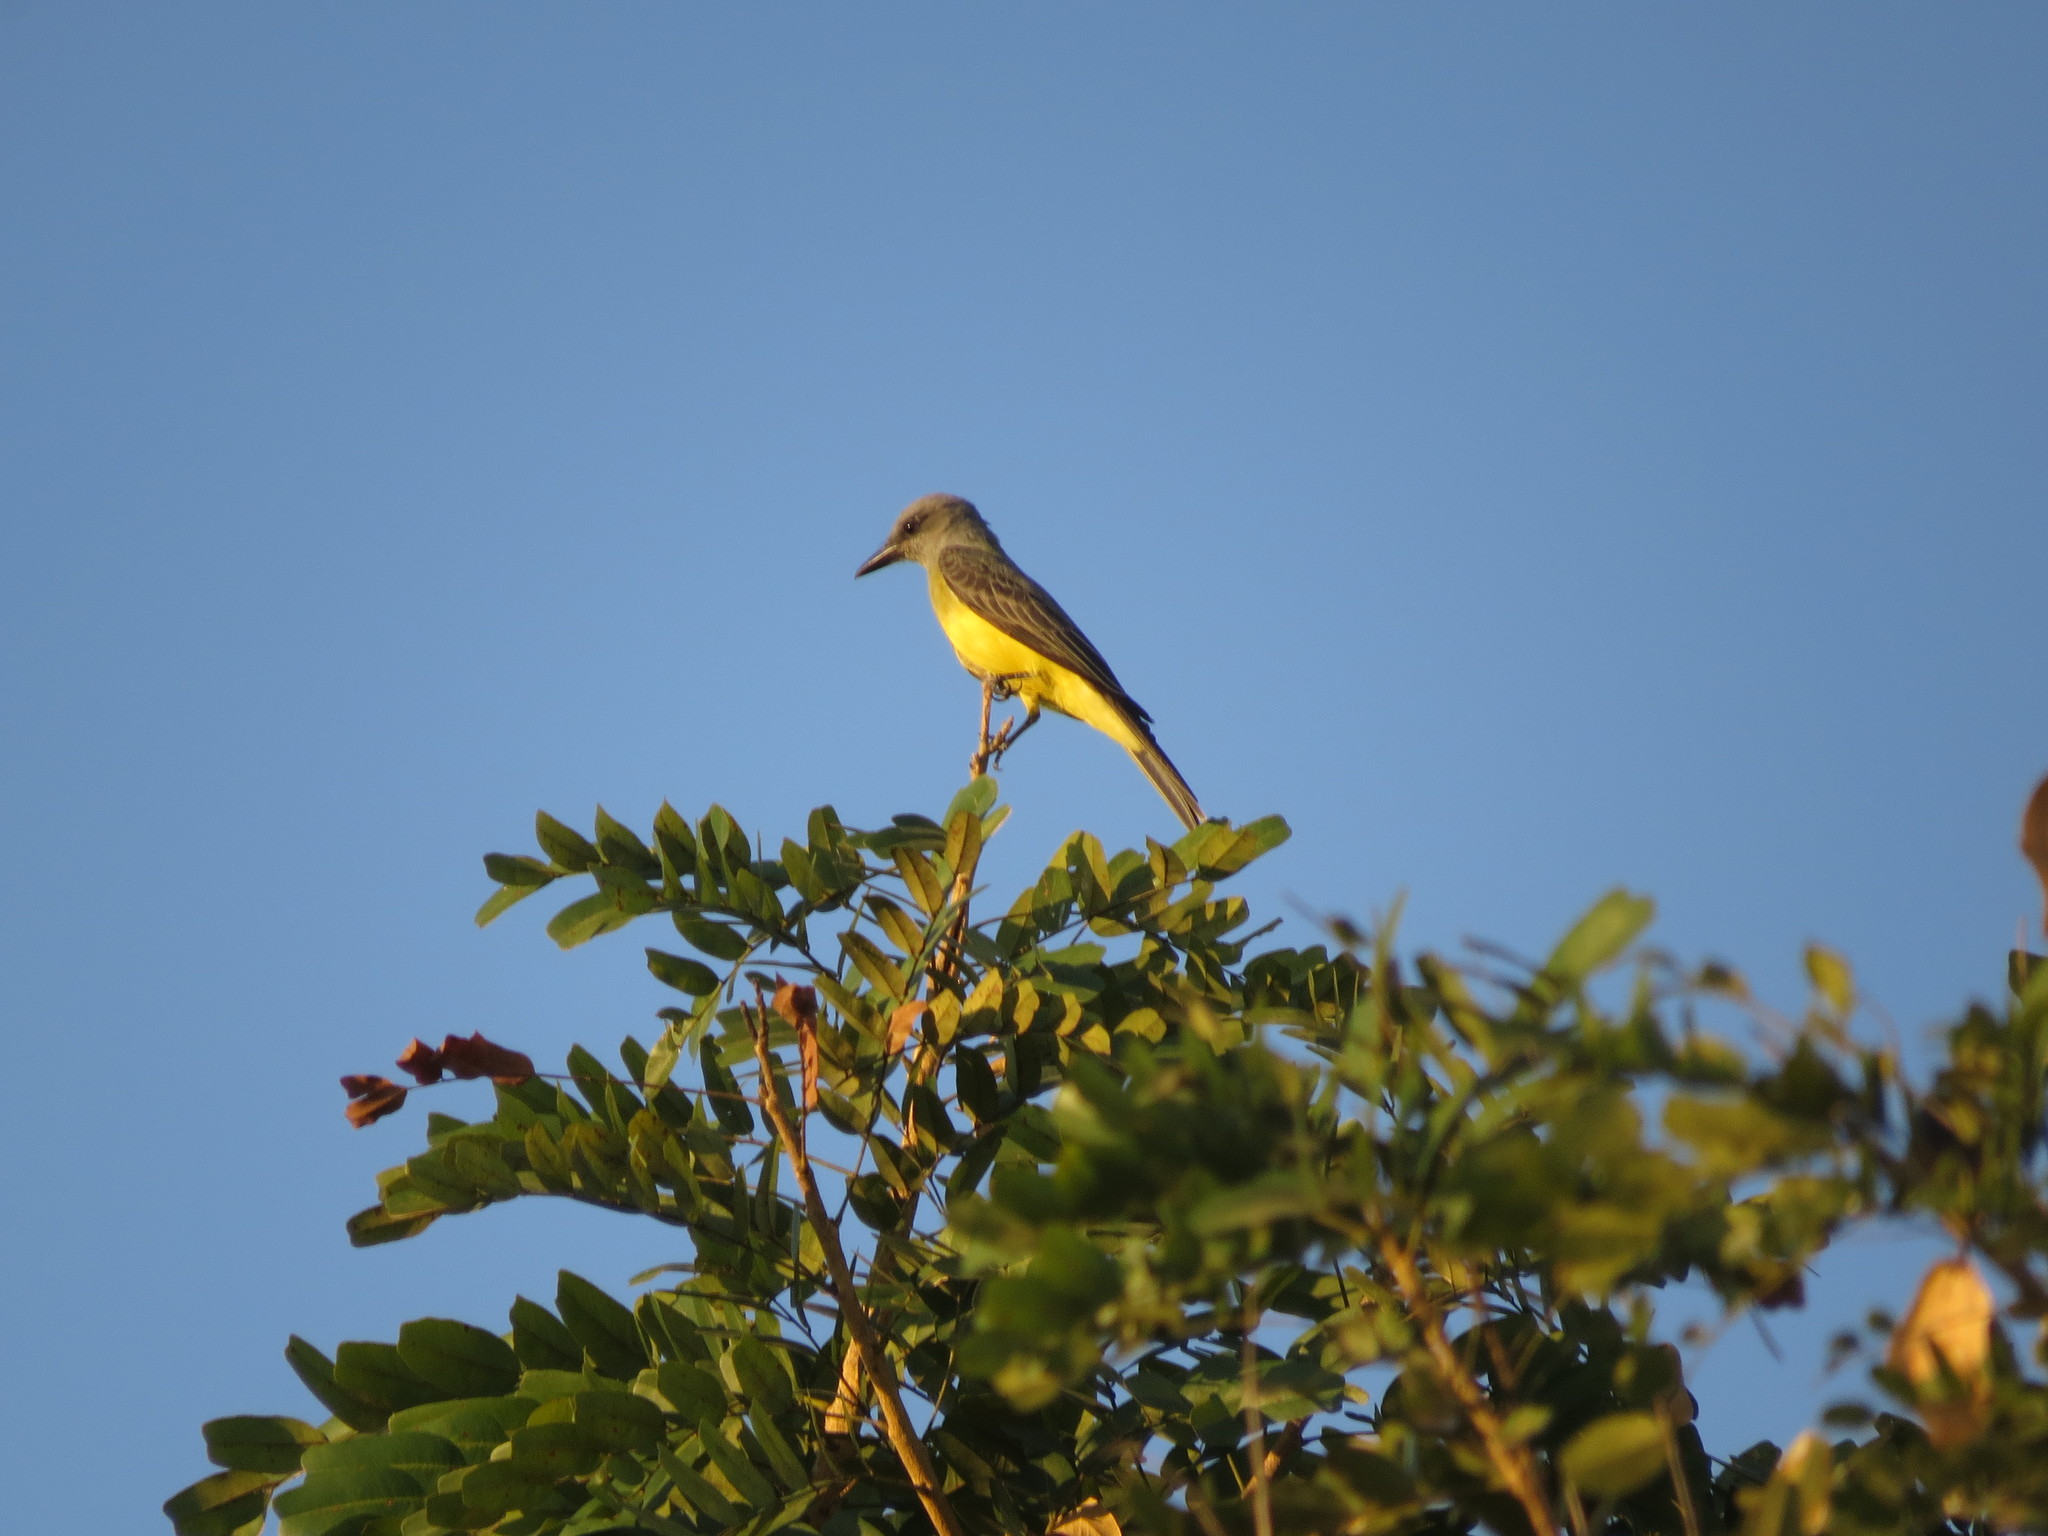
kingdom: Animalia
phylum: Chordata
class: Aves
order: Passeriformes
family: Tyrannidae
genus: Tyrannus
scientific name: Tyrannus melancholicus
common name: Tropical kingbird
